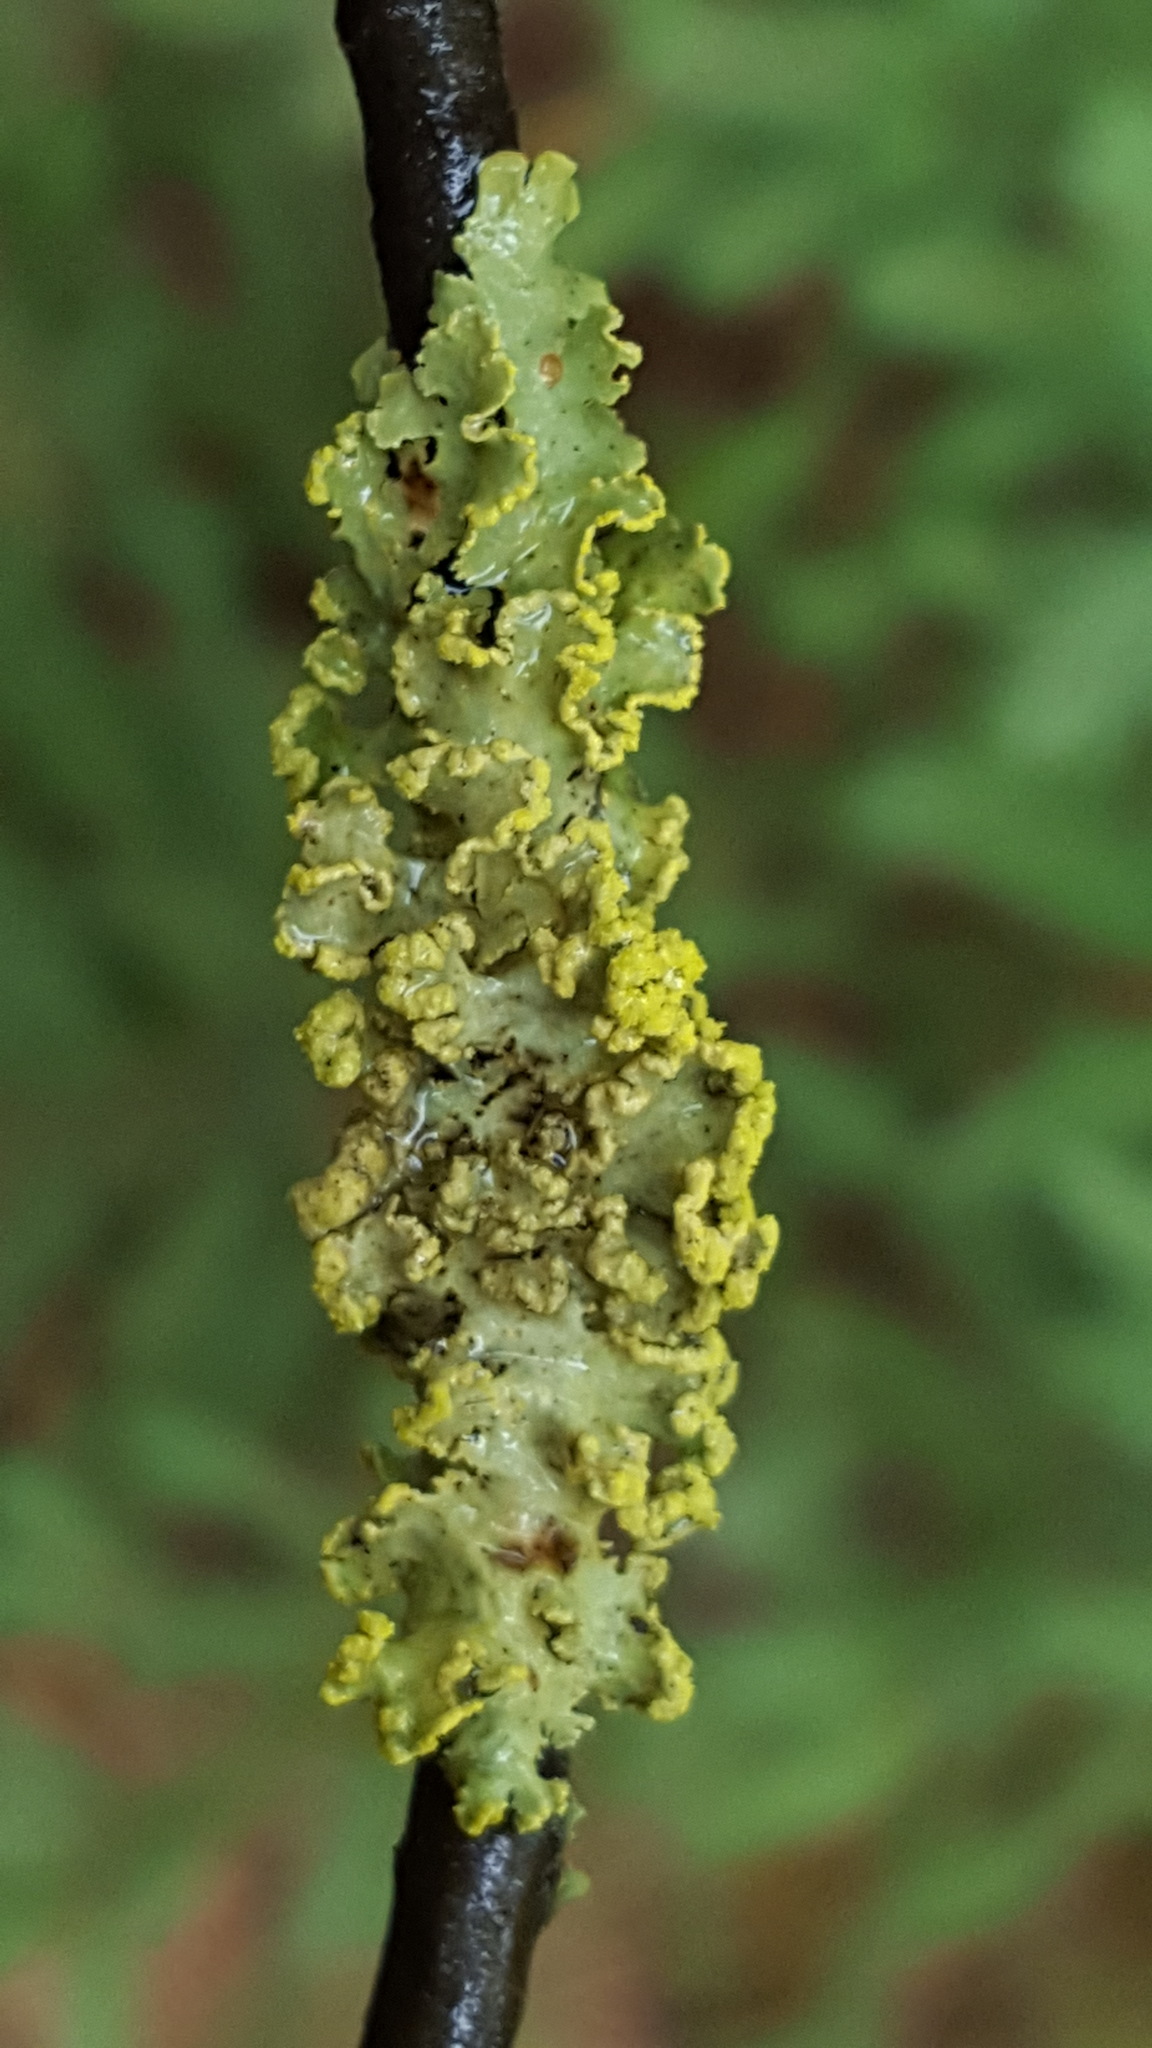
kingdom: Fungi
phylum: Ascomycota
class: Lecanoromycetes
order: Lecanorales
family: Parmeliaceae
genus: Vulpicida
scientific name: Vulpicida pinastri
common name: Powdered sunshine lichen
